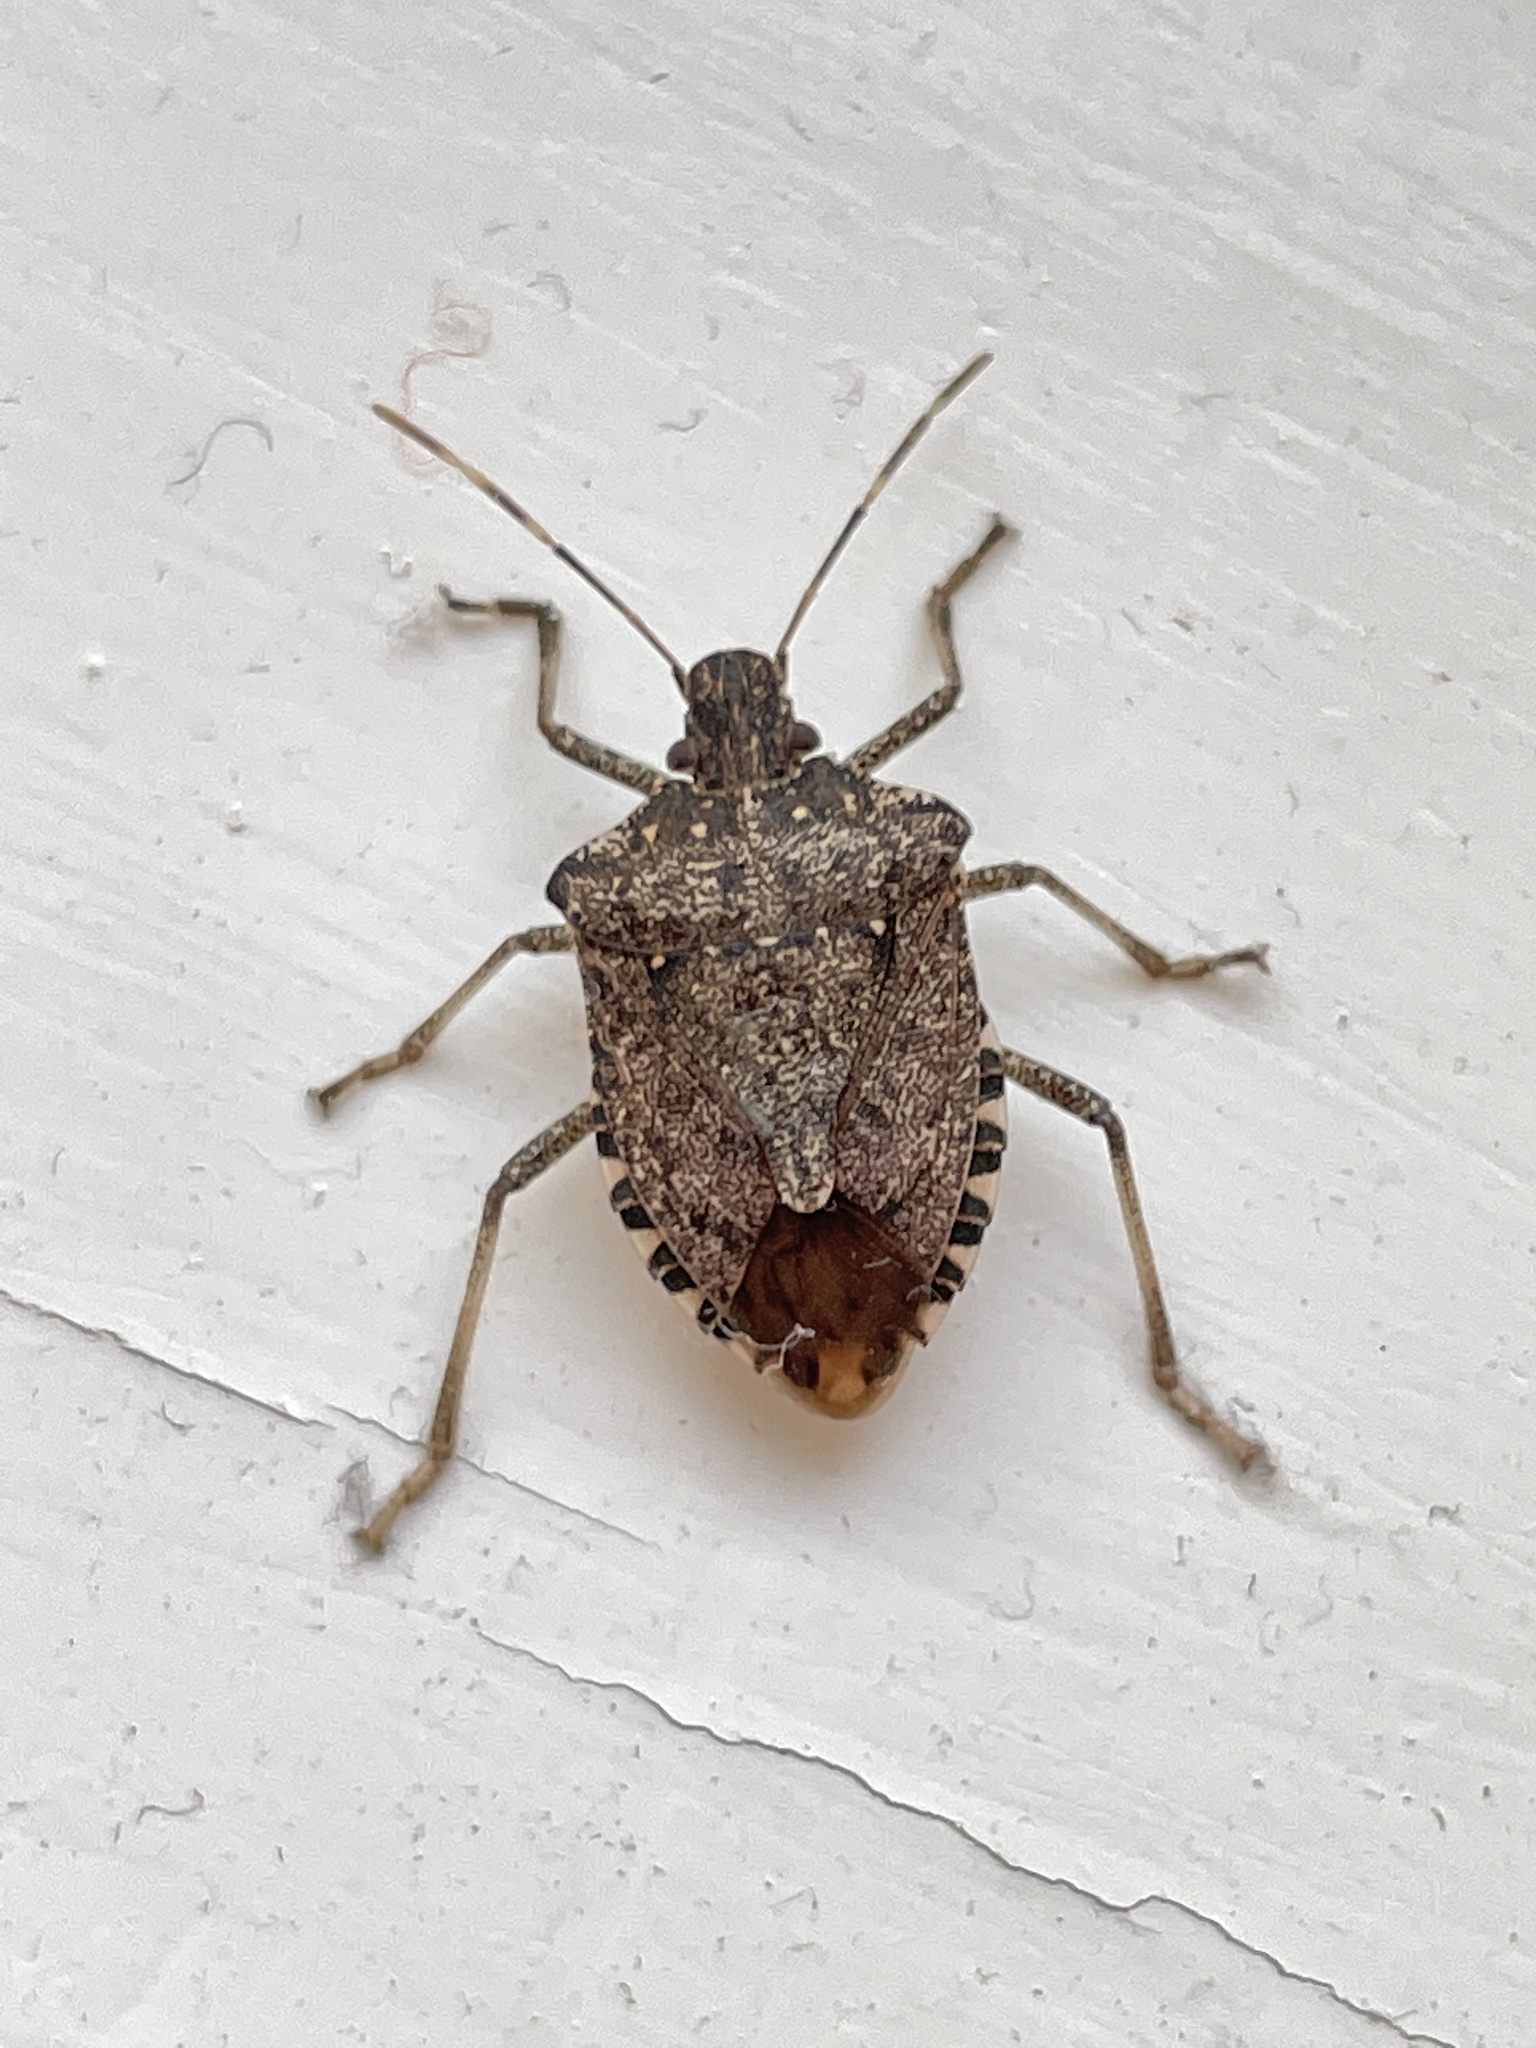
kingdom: Animalia
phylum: Arthropoda
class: Insecta
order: Hemiptera
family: Pentatomidae
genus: Halyomorpha
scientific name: Halyomorpha halys
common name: Brown marmorated stink bug
